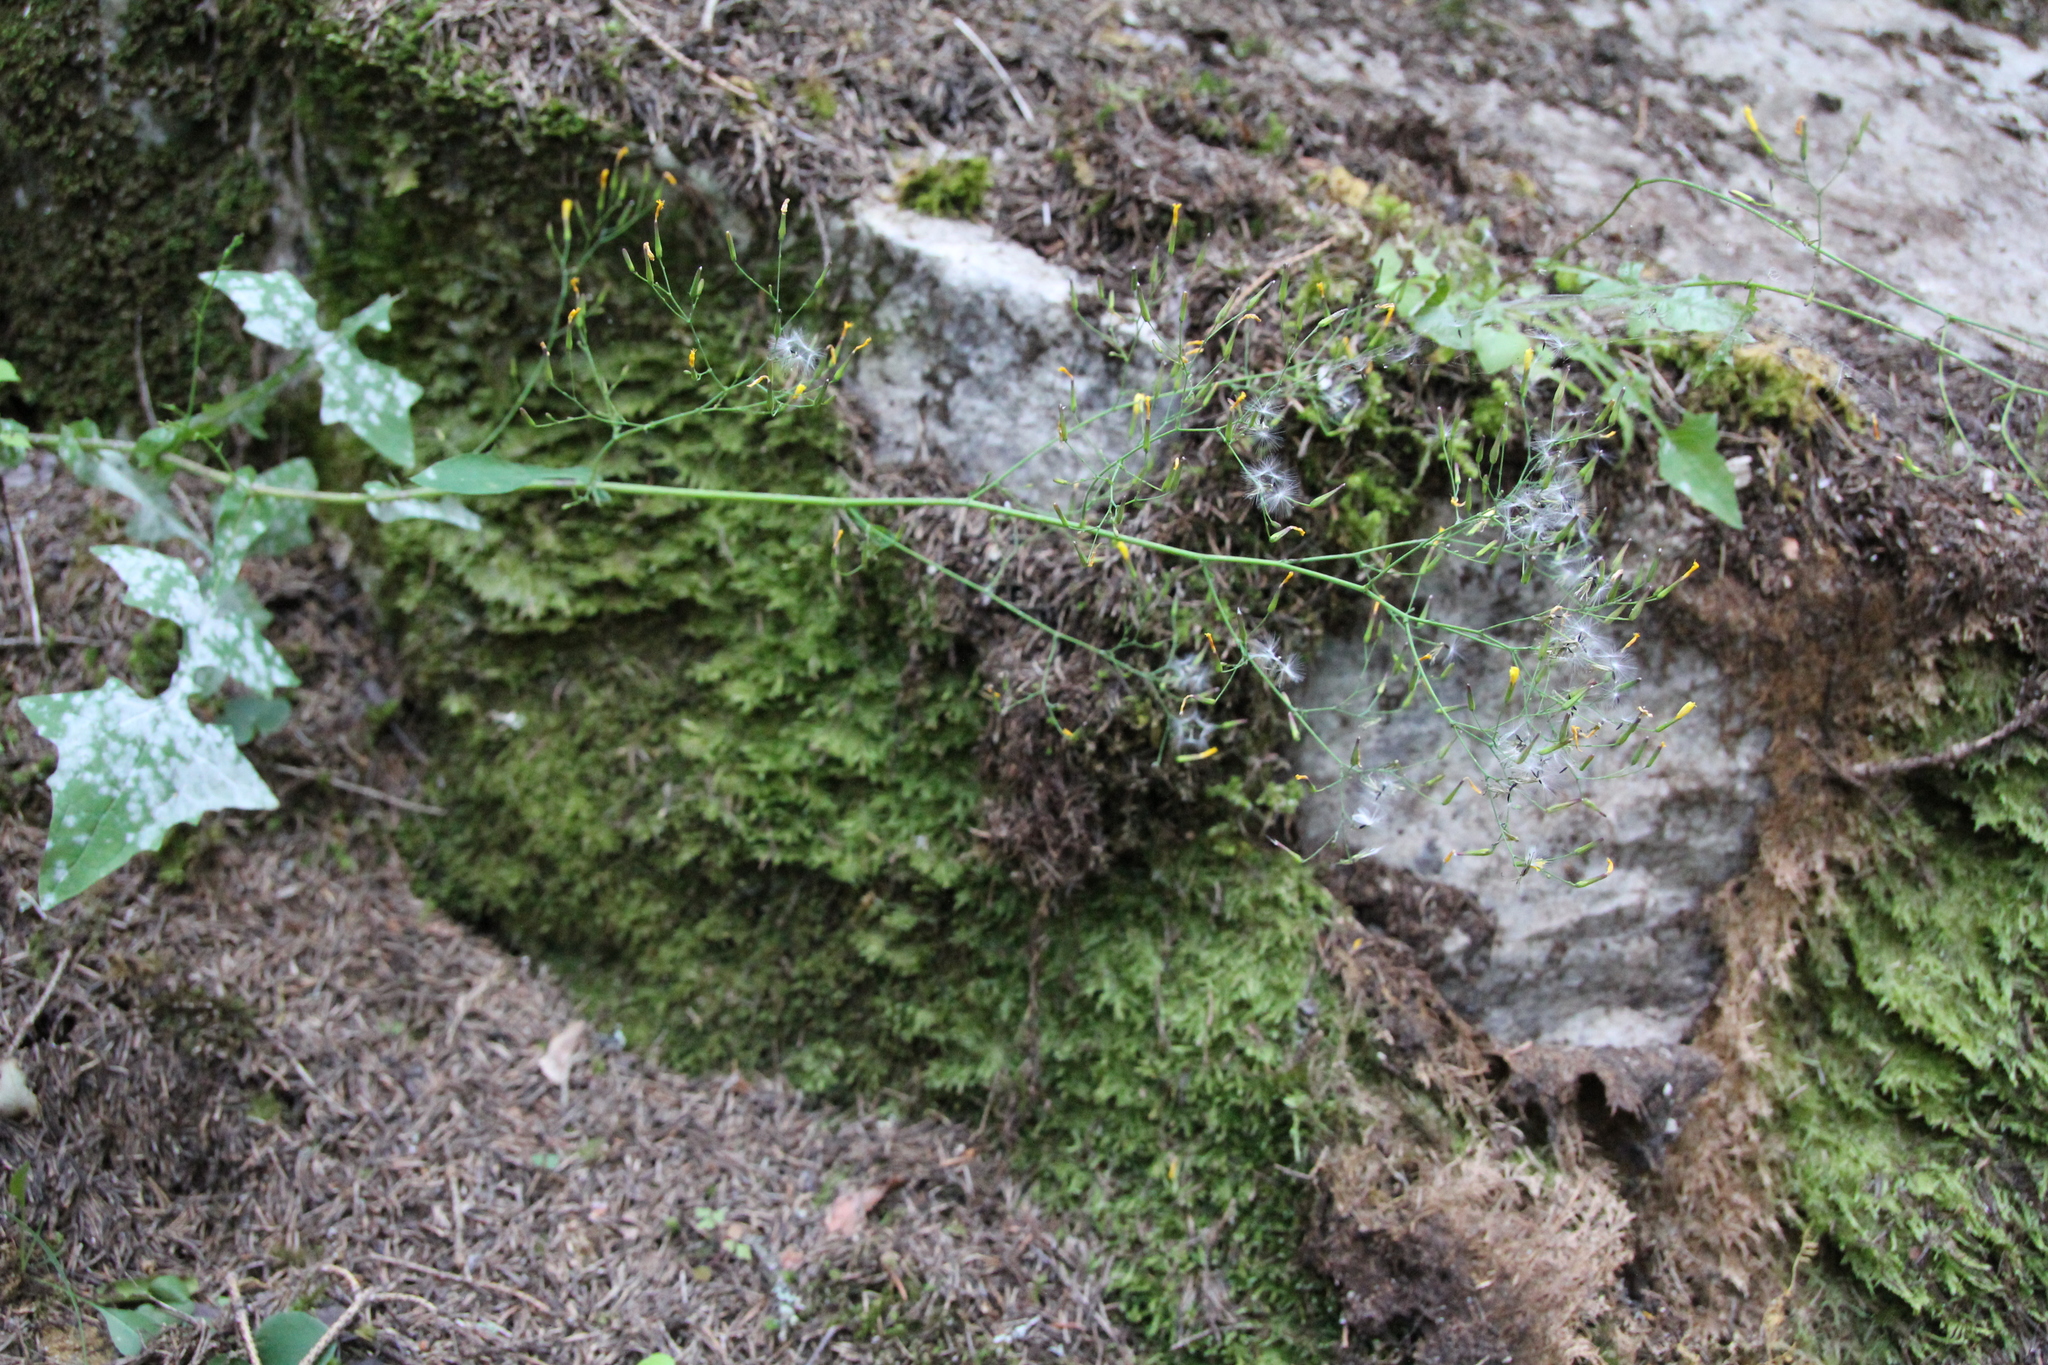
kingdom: Plantae
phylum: Tracheophyta
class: Magnoliopsida
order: Asterales
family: Asteraceae
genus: Mycelis
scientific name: Mycelis muralis
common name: Wall lettuce
